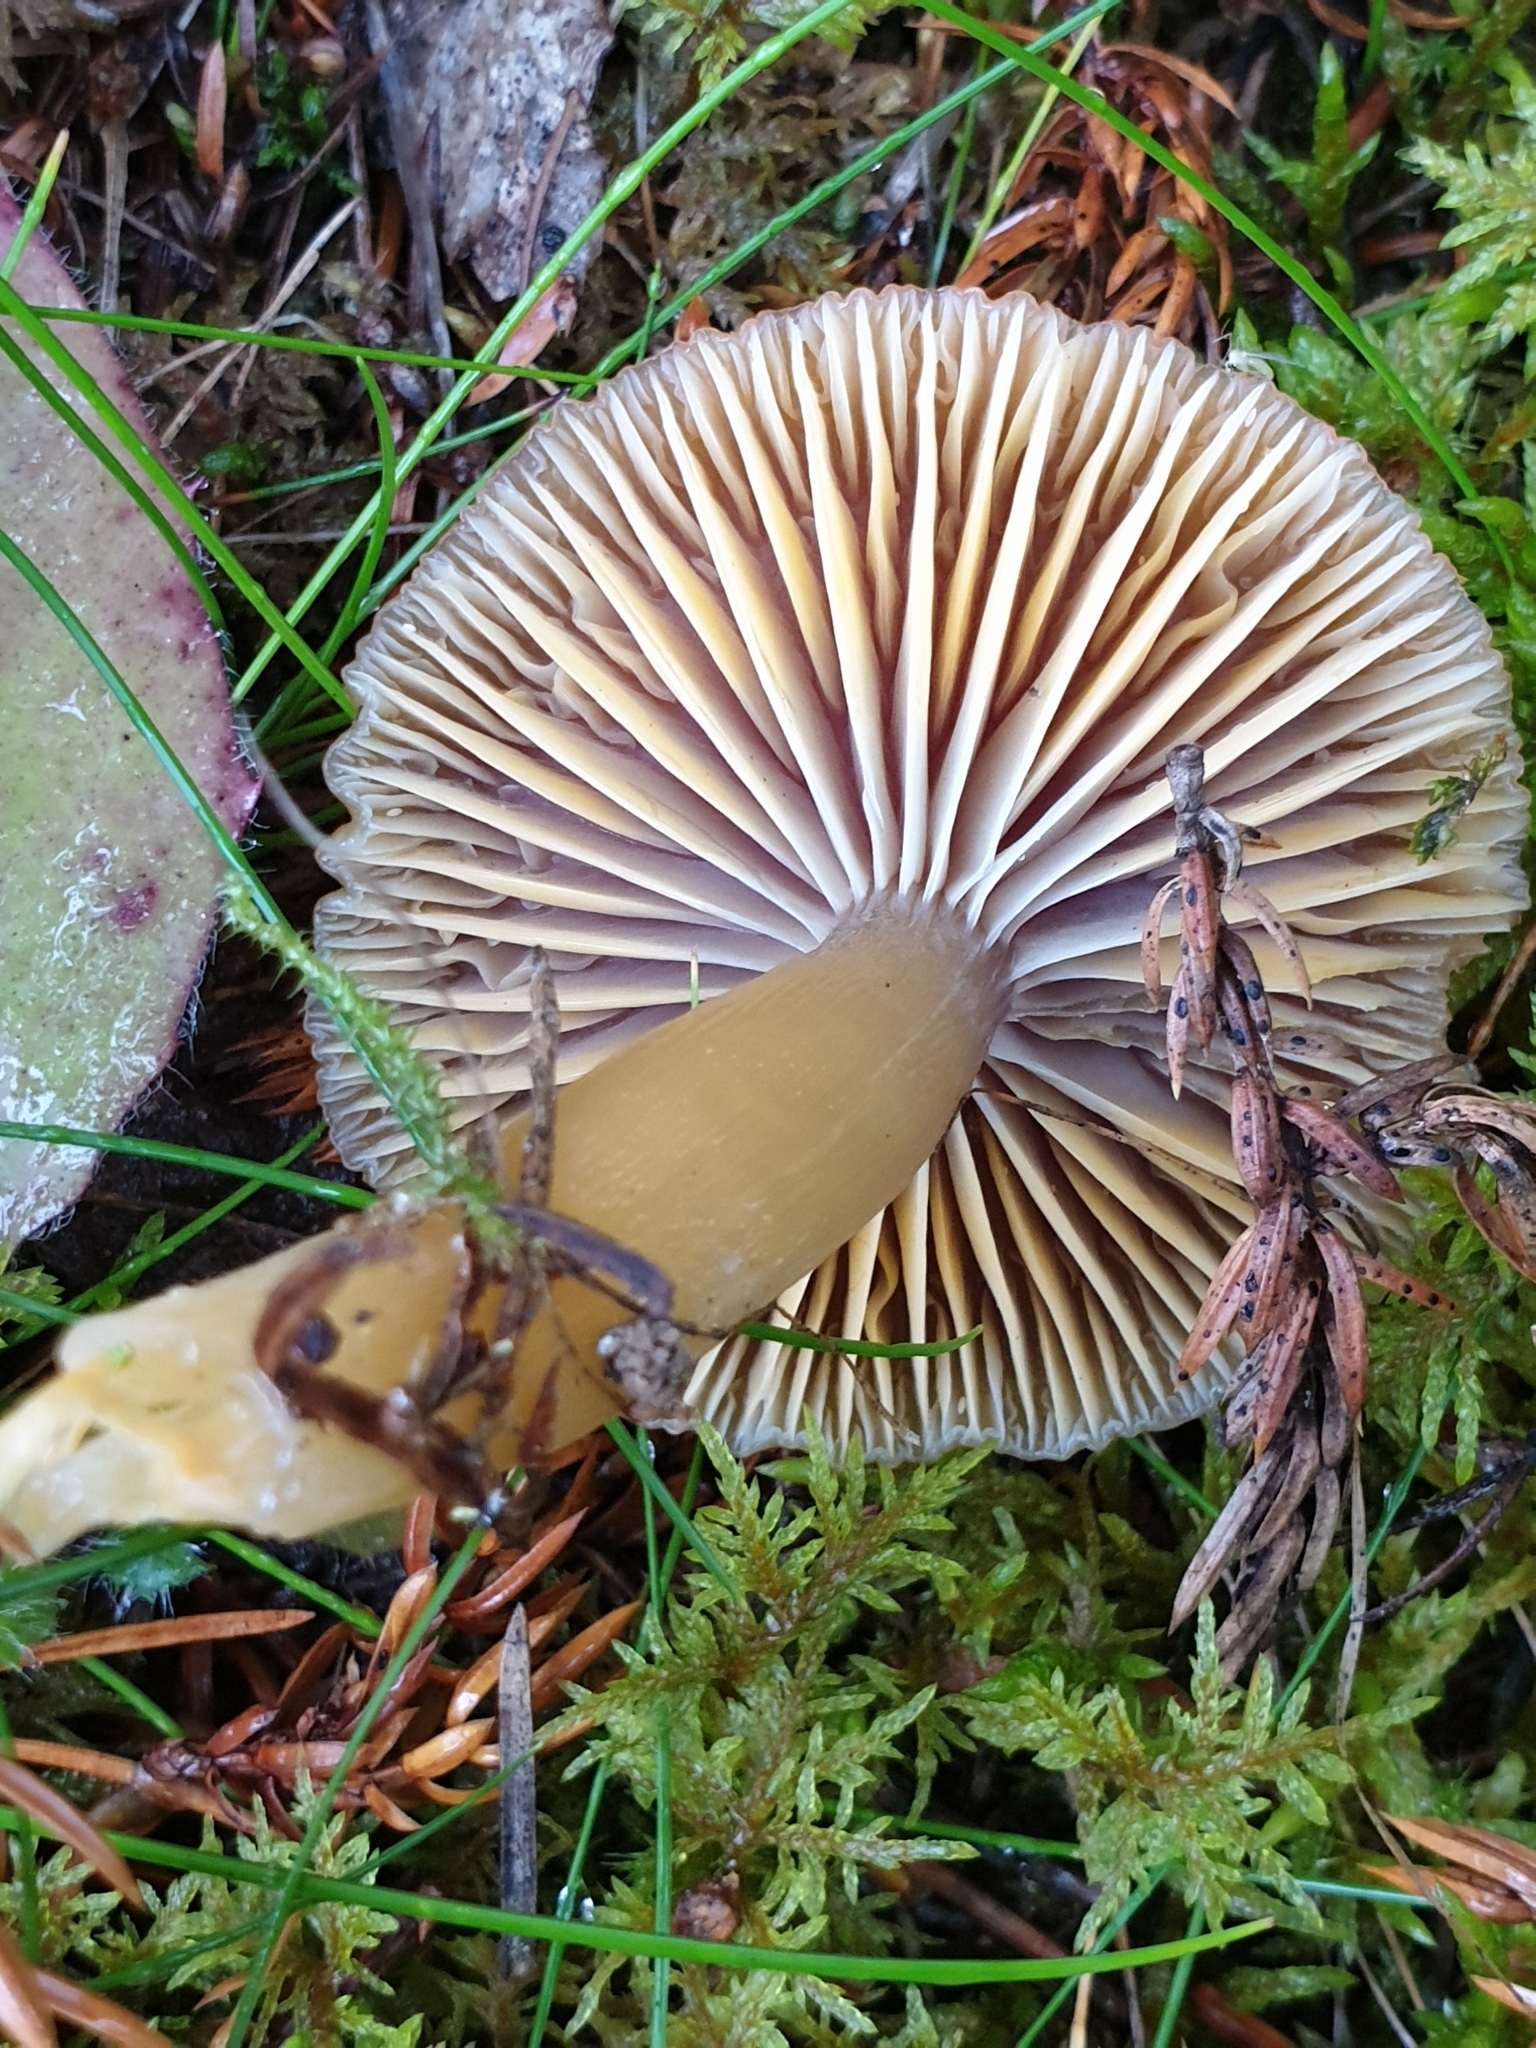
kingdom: Fungi
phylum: Basidiomycota
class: Agaricomycetes
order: Agaricales
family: Hygrophoraceae
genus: Gliophorus
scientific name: Gliophorus laetus
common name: Heath waxcap
